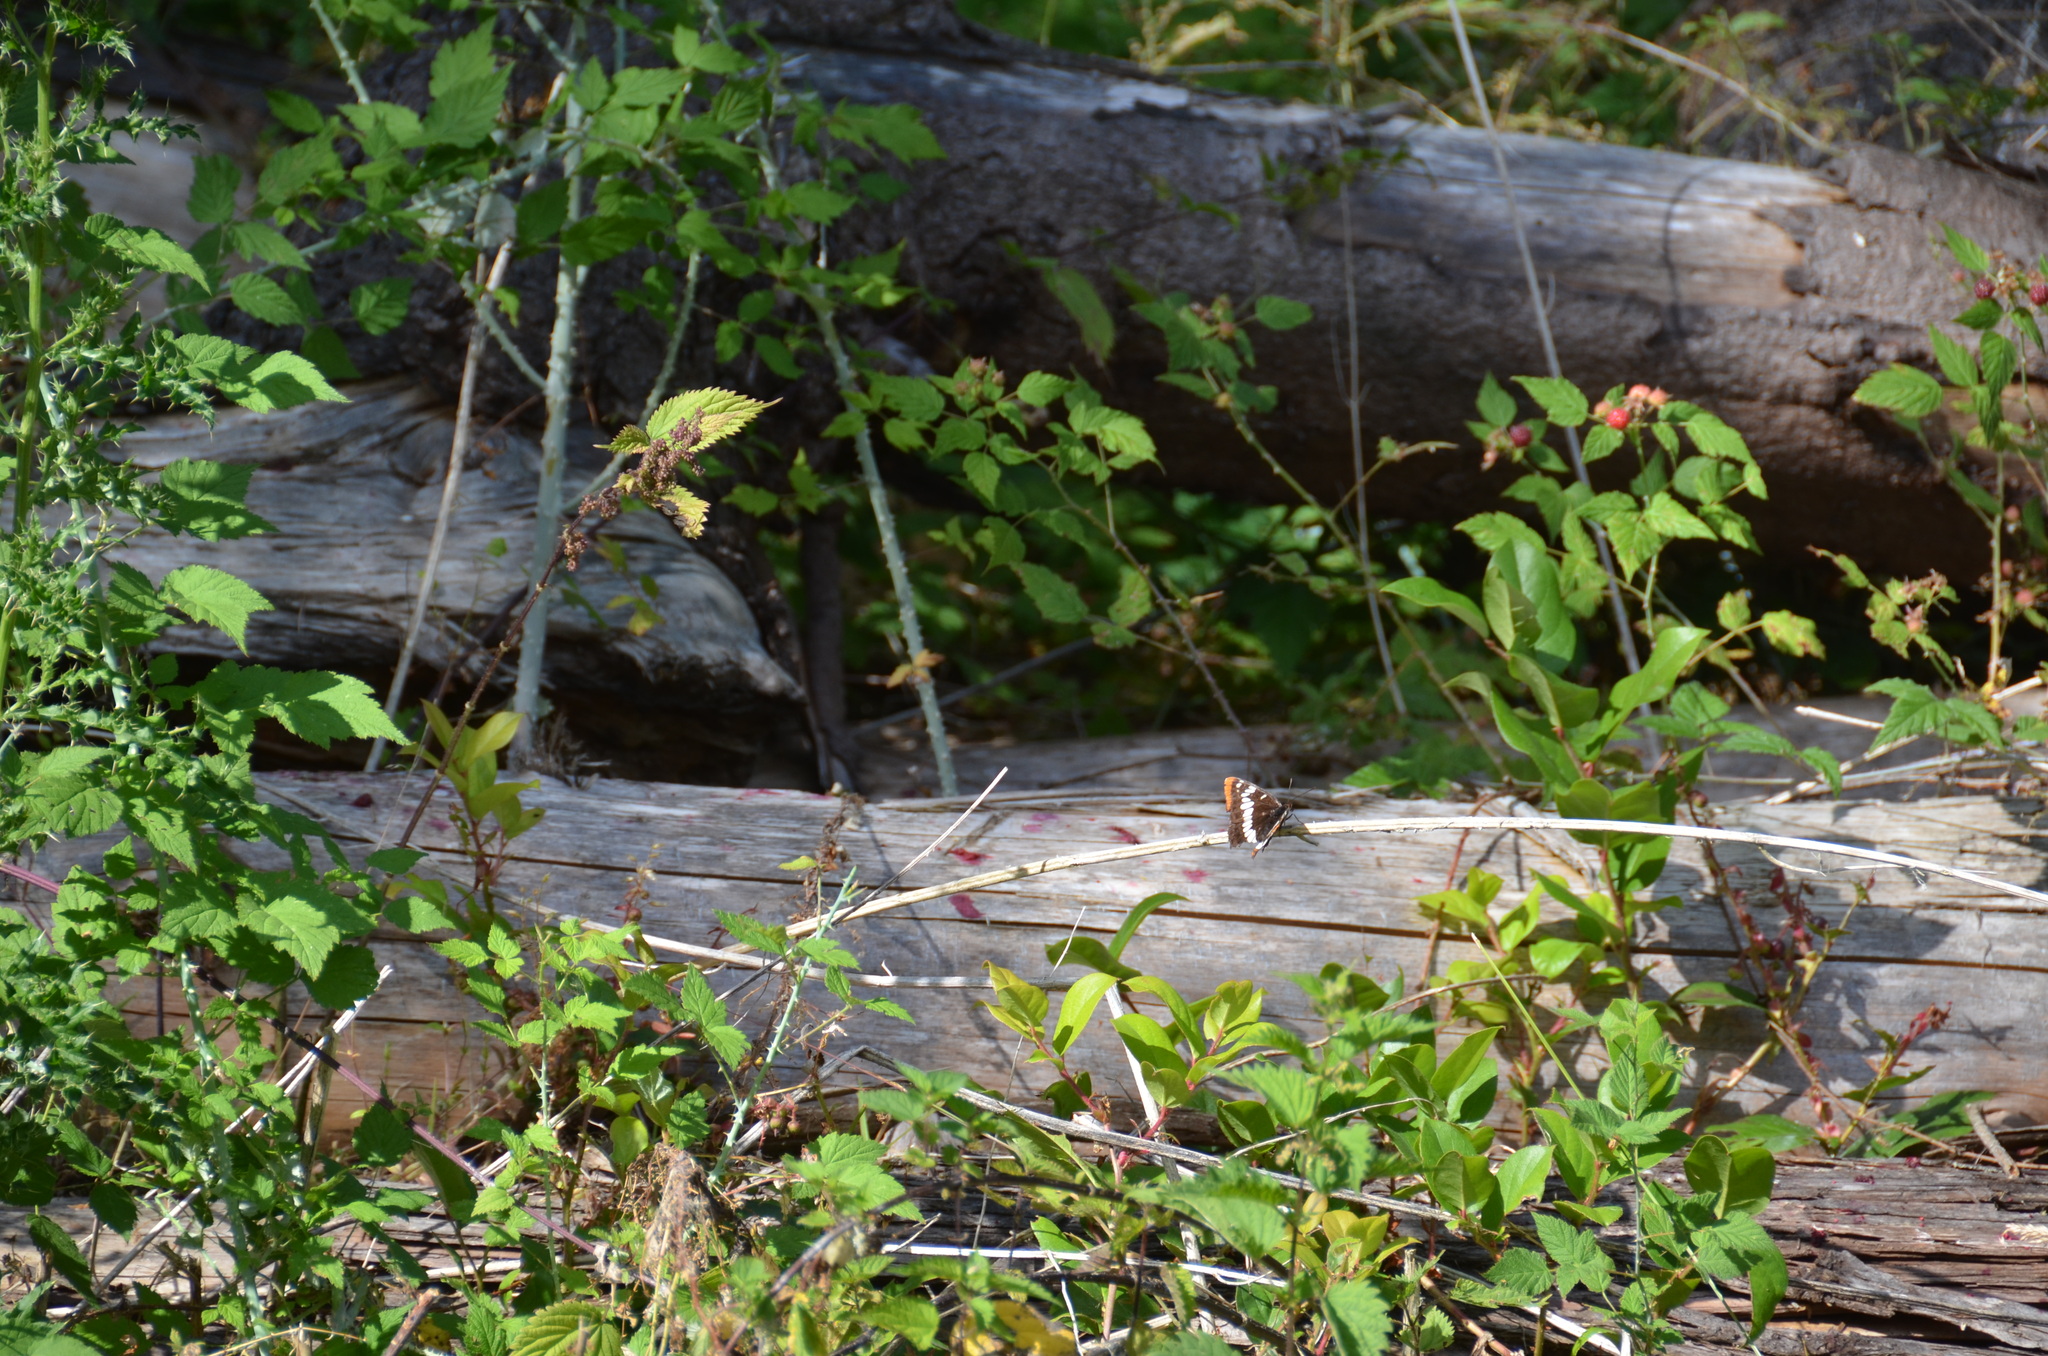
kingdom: Animalia
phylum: Arthropoda
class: Insecta
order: Lepidoptera
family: Nymphalidae
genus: Limenitis
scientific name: Limenitis lorquini
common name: Lorquin's admiral
